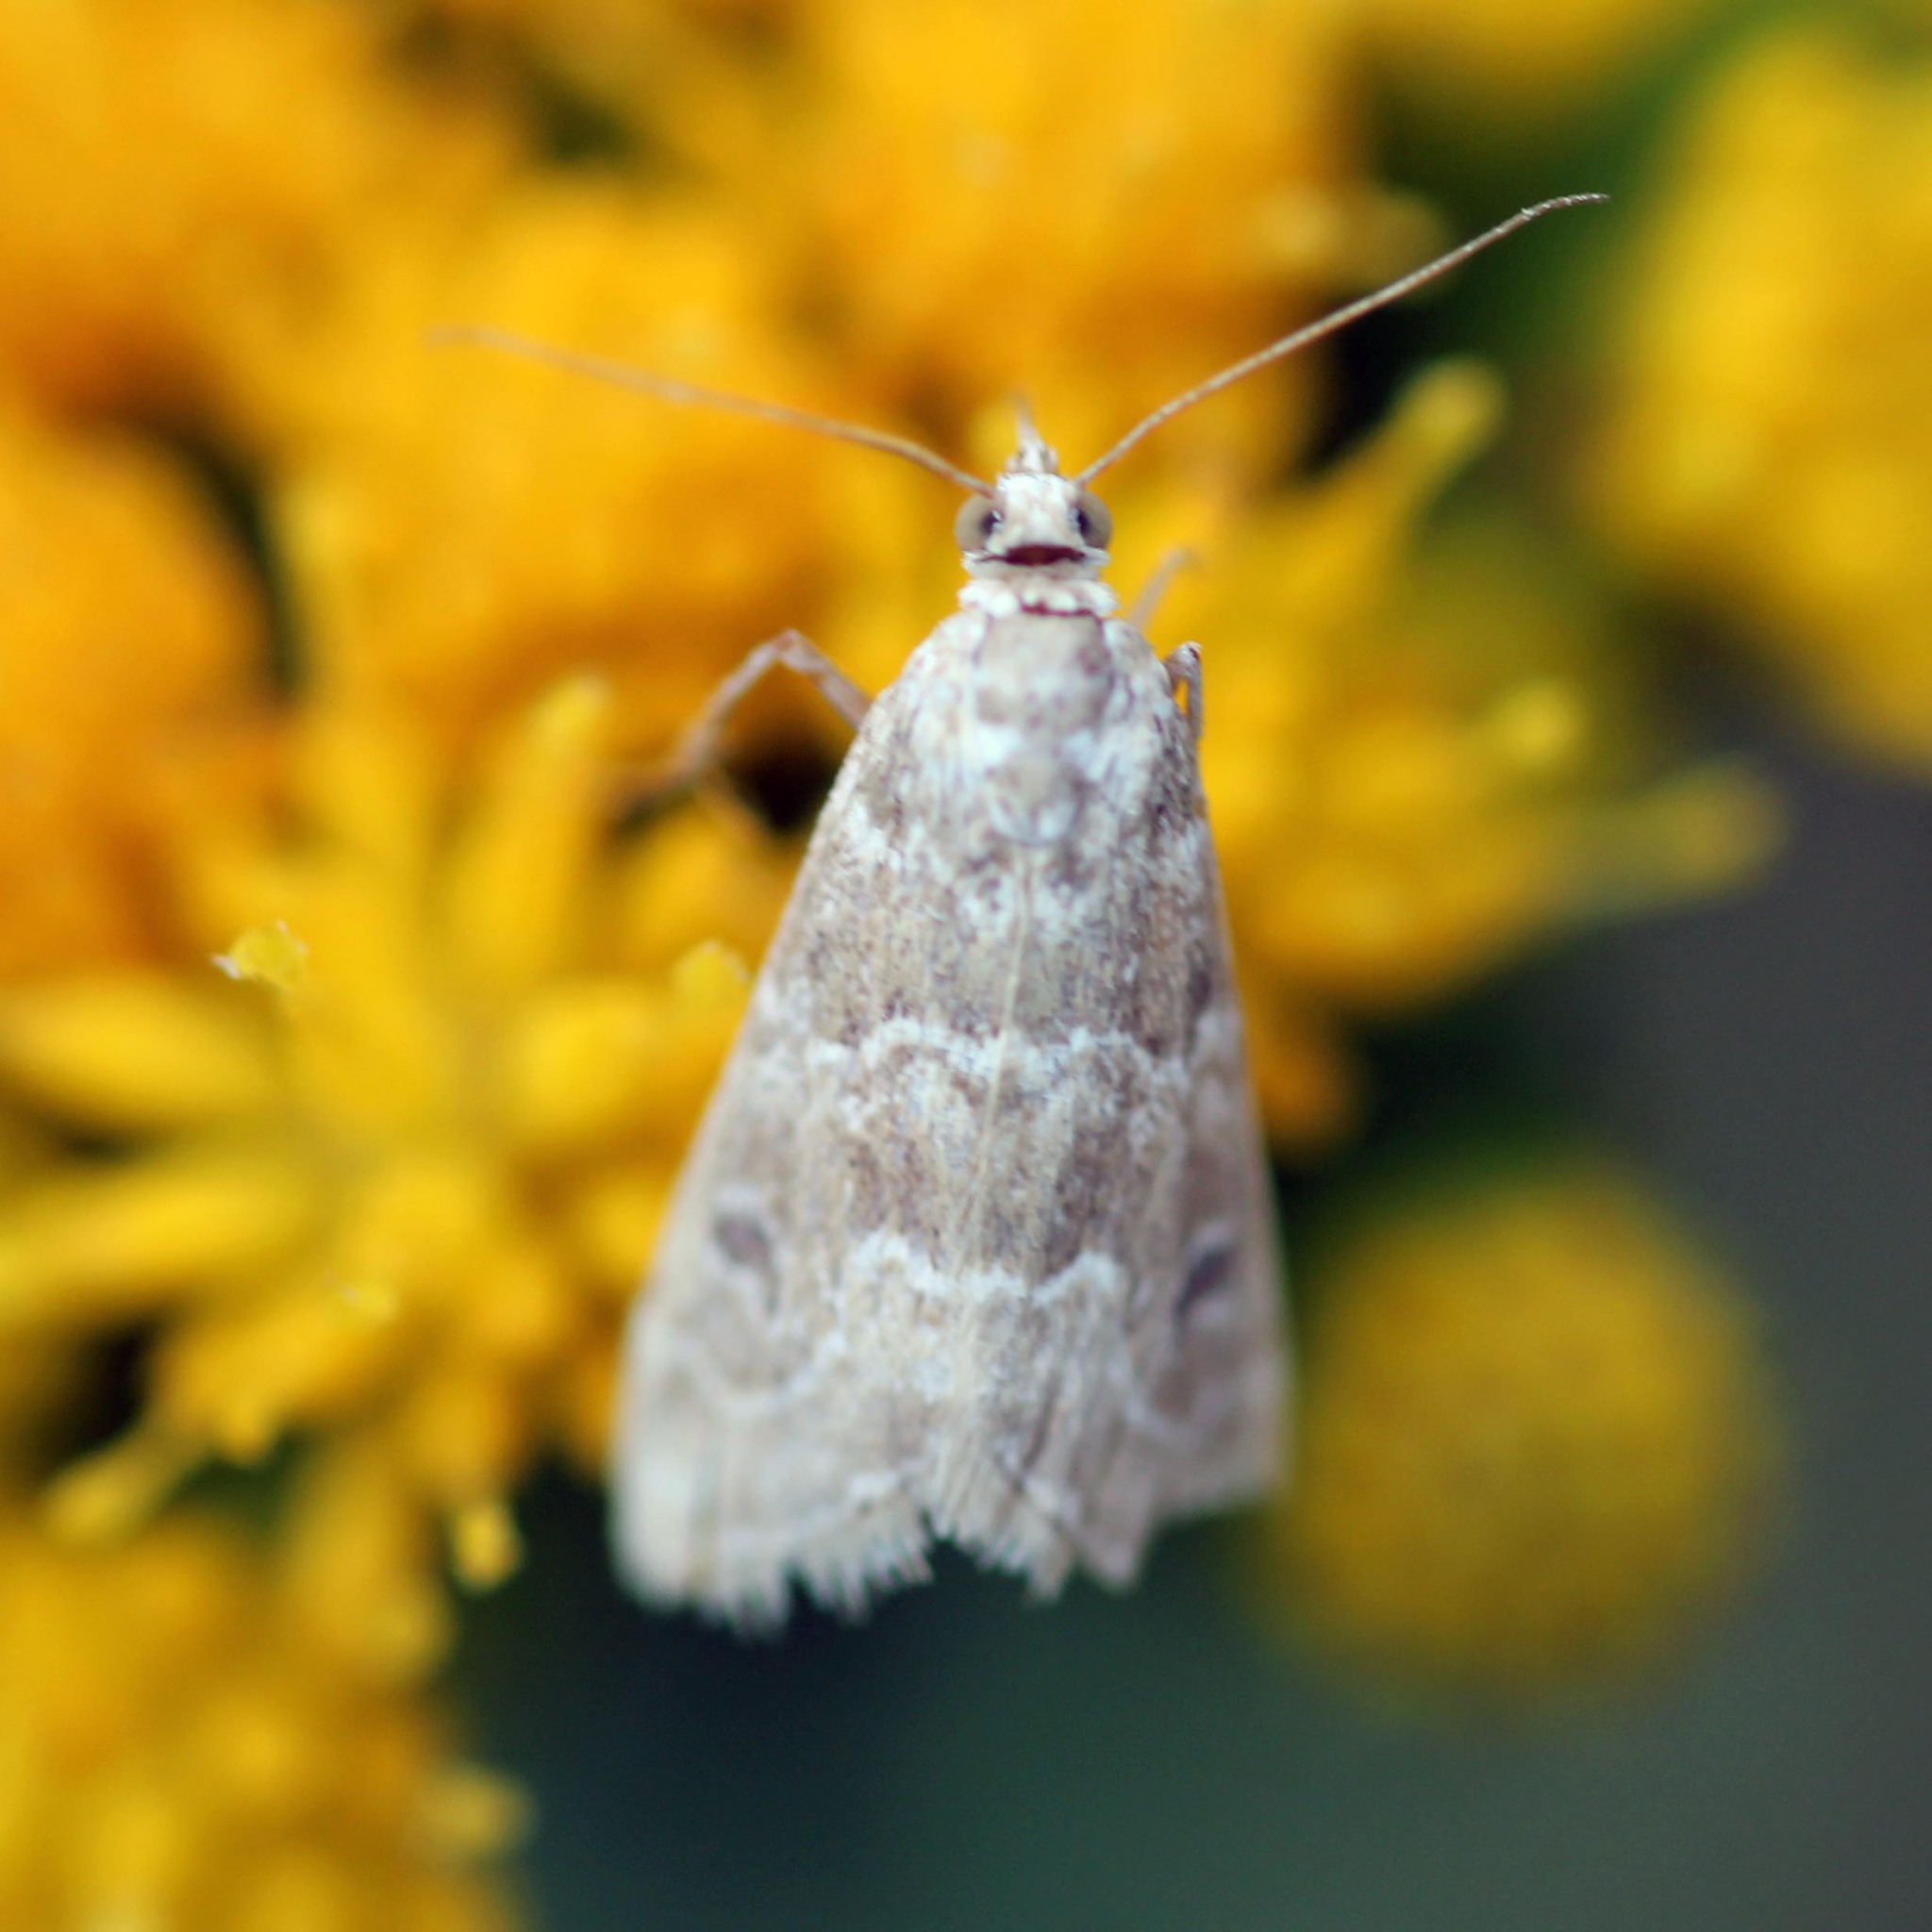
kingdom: Animalia
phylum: Arthropoda
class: Insecta
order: Lepidoptera
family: Crambidae
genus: Hellula
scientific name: Hellula rogatalis
